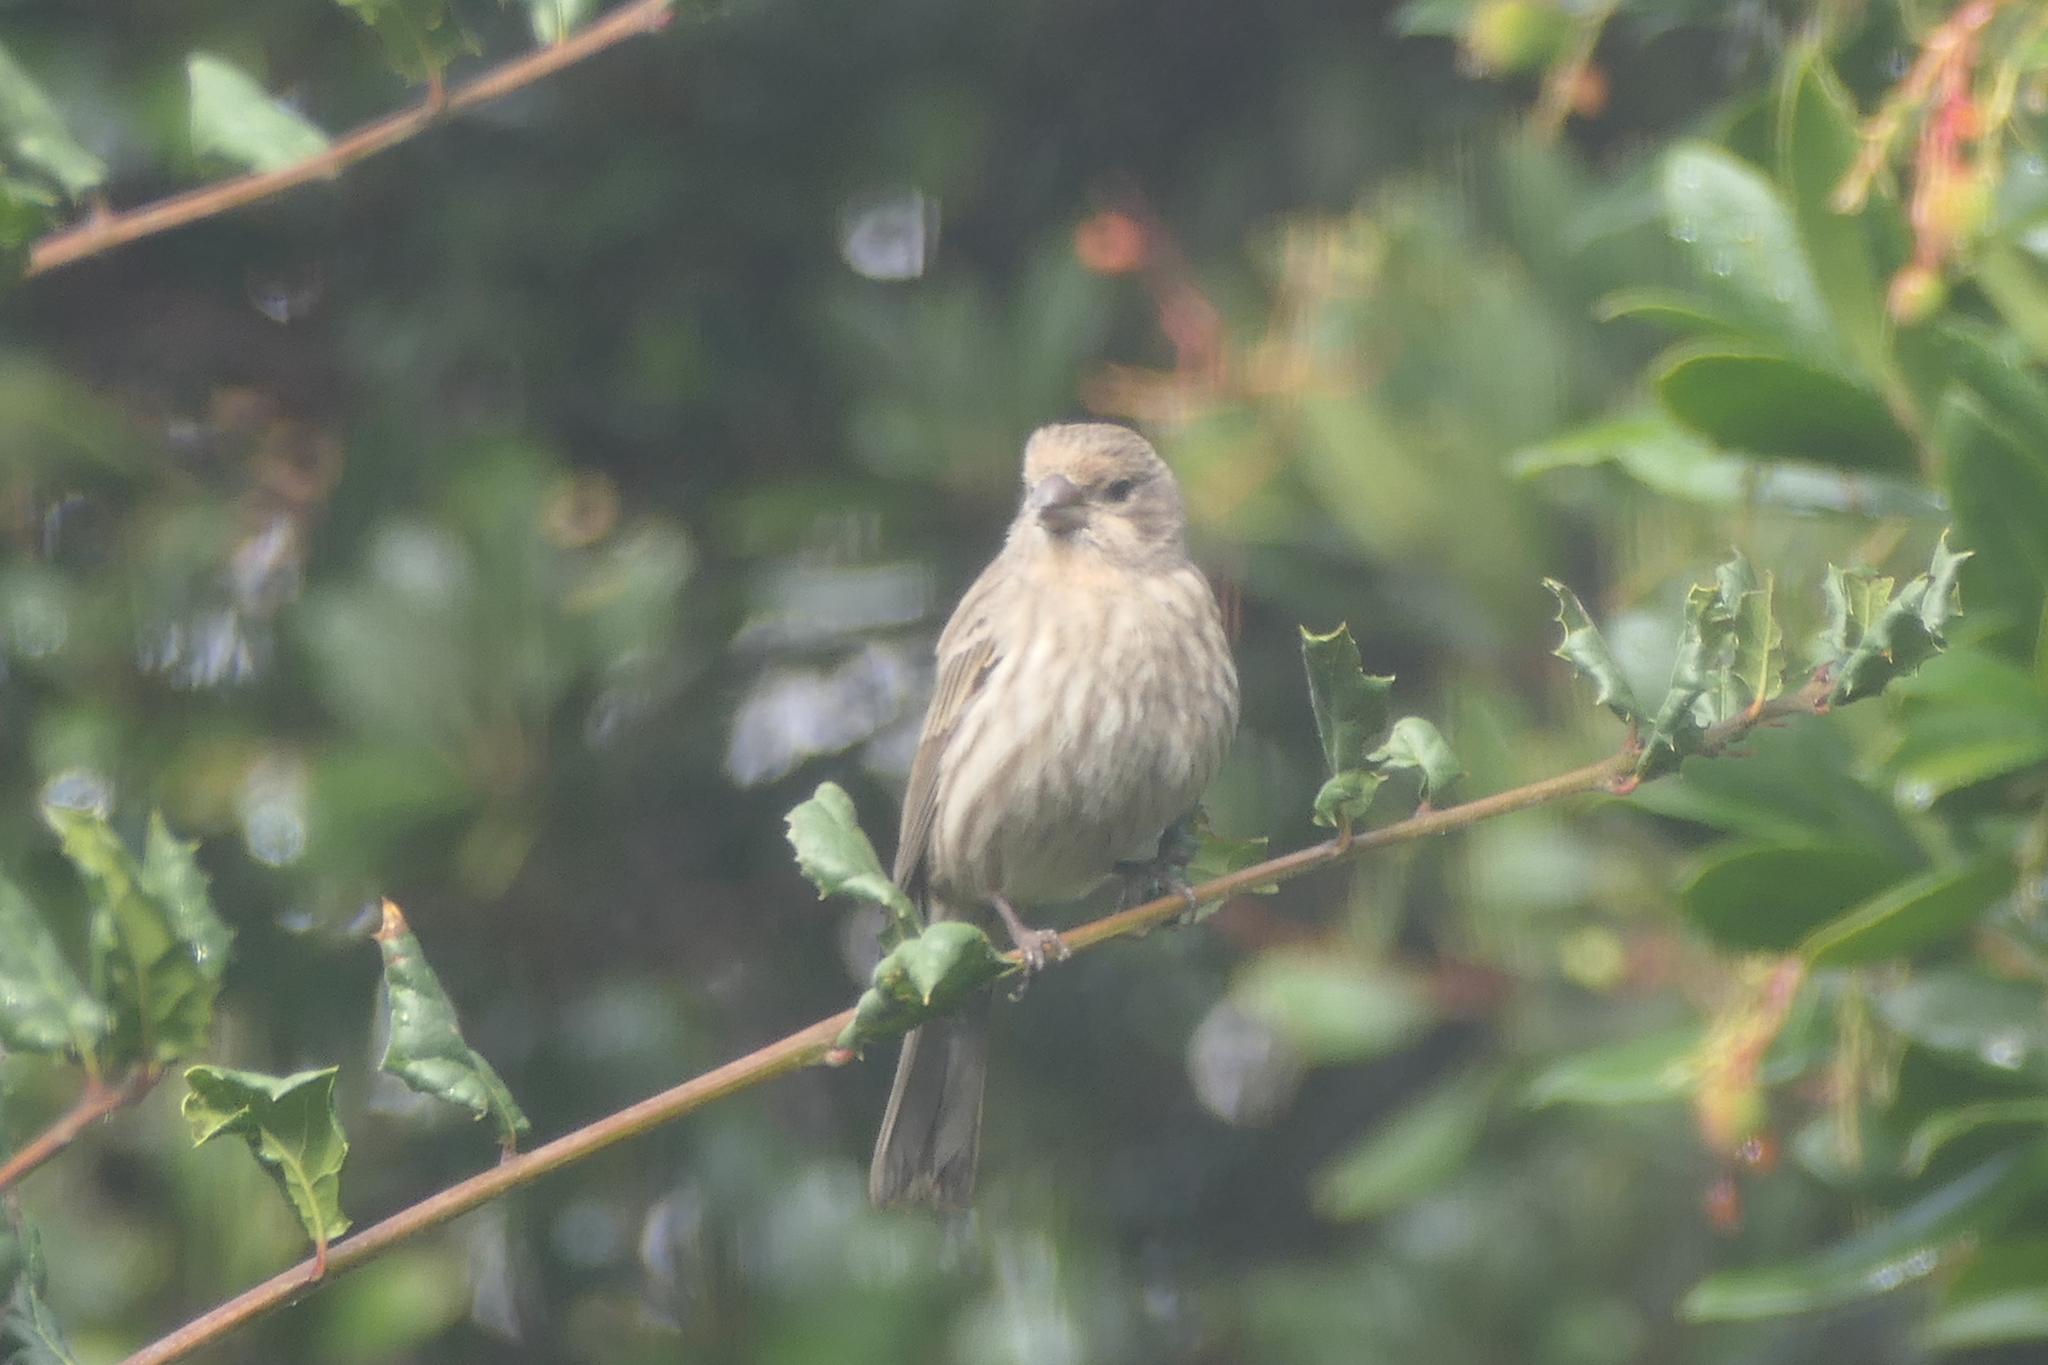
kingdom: Animalia
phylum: Chordata
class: Aves
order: Passeriformes
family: Fringillidae
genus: Haemorhous
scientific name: Haemorhous mexicanus
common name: House finch
